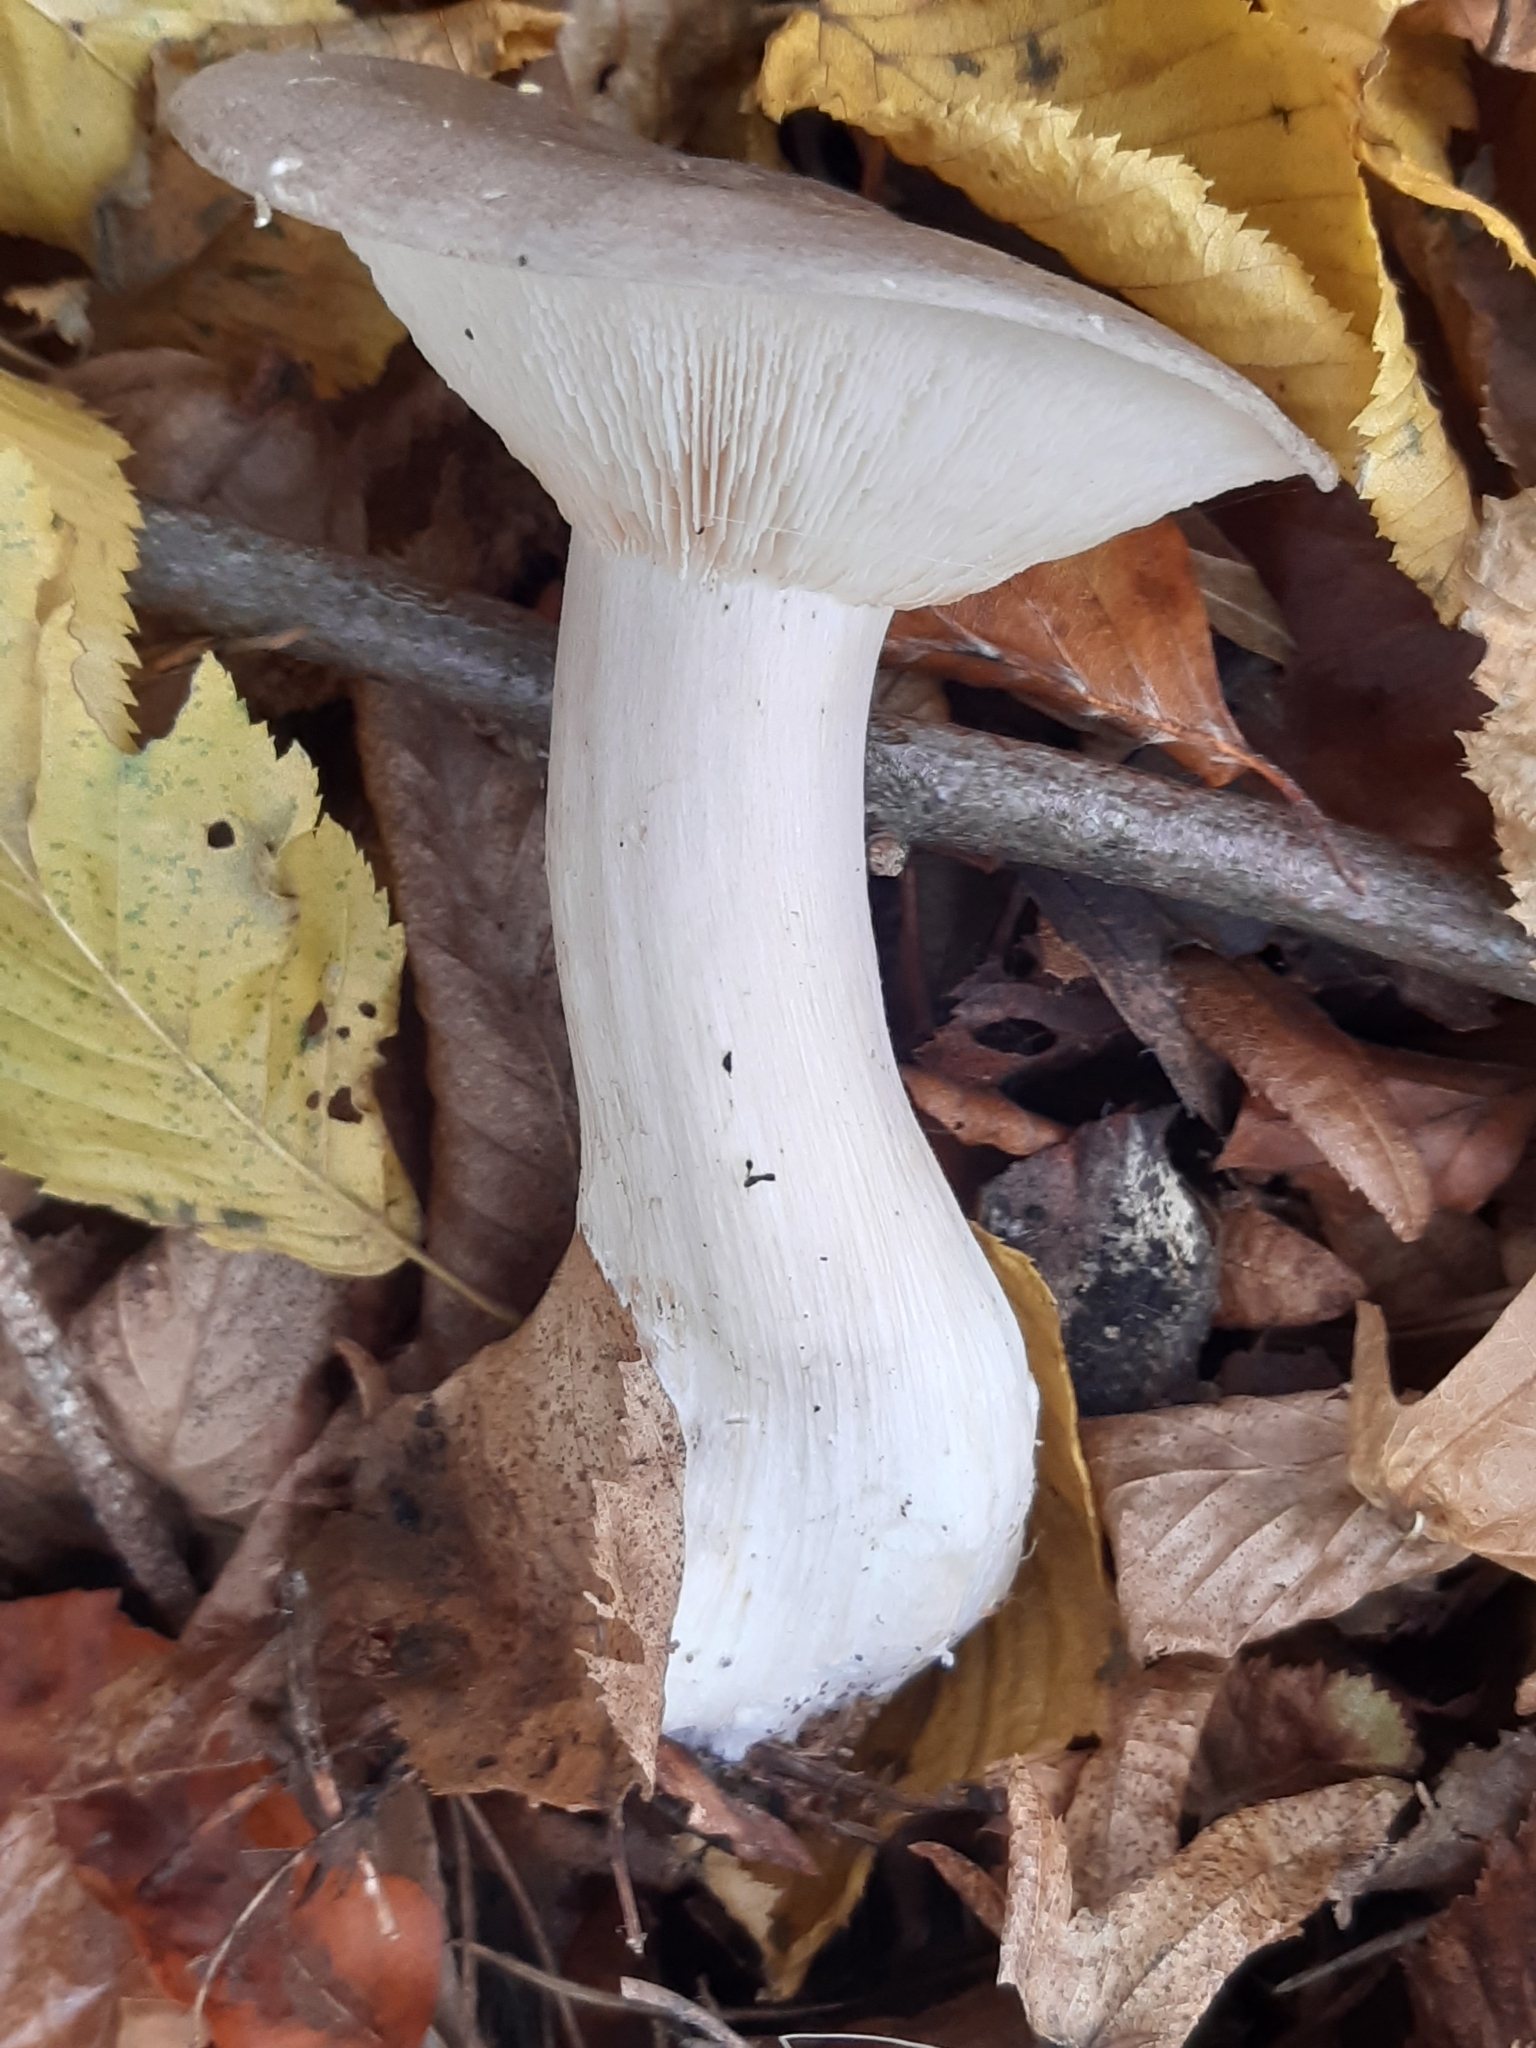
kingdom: Fungi
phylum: Basidiomycota
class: Agaricomycetes
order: Agaricales
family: Tricholomataceae
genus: Clitocybe
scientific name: Clitocybe nebularis
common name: Clouded agaric
